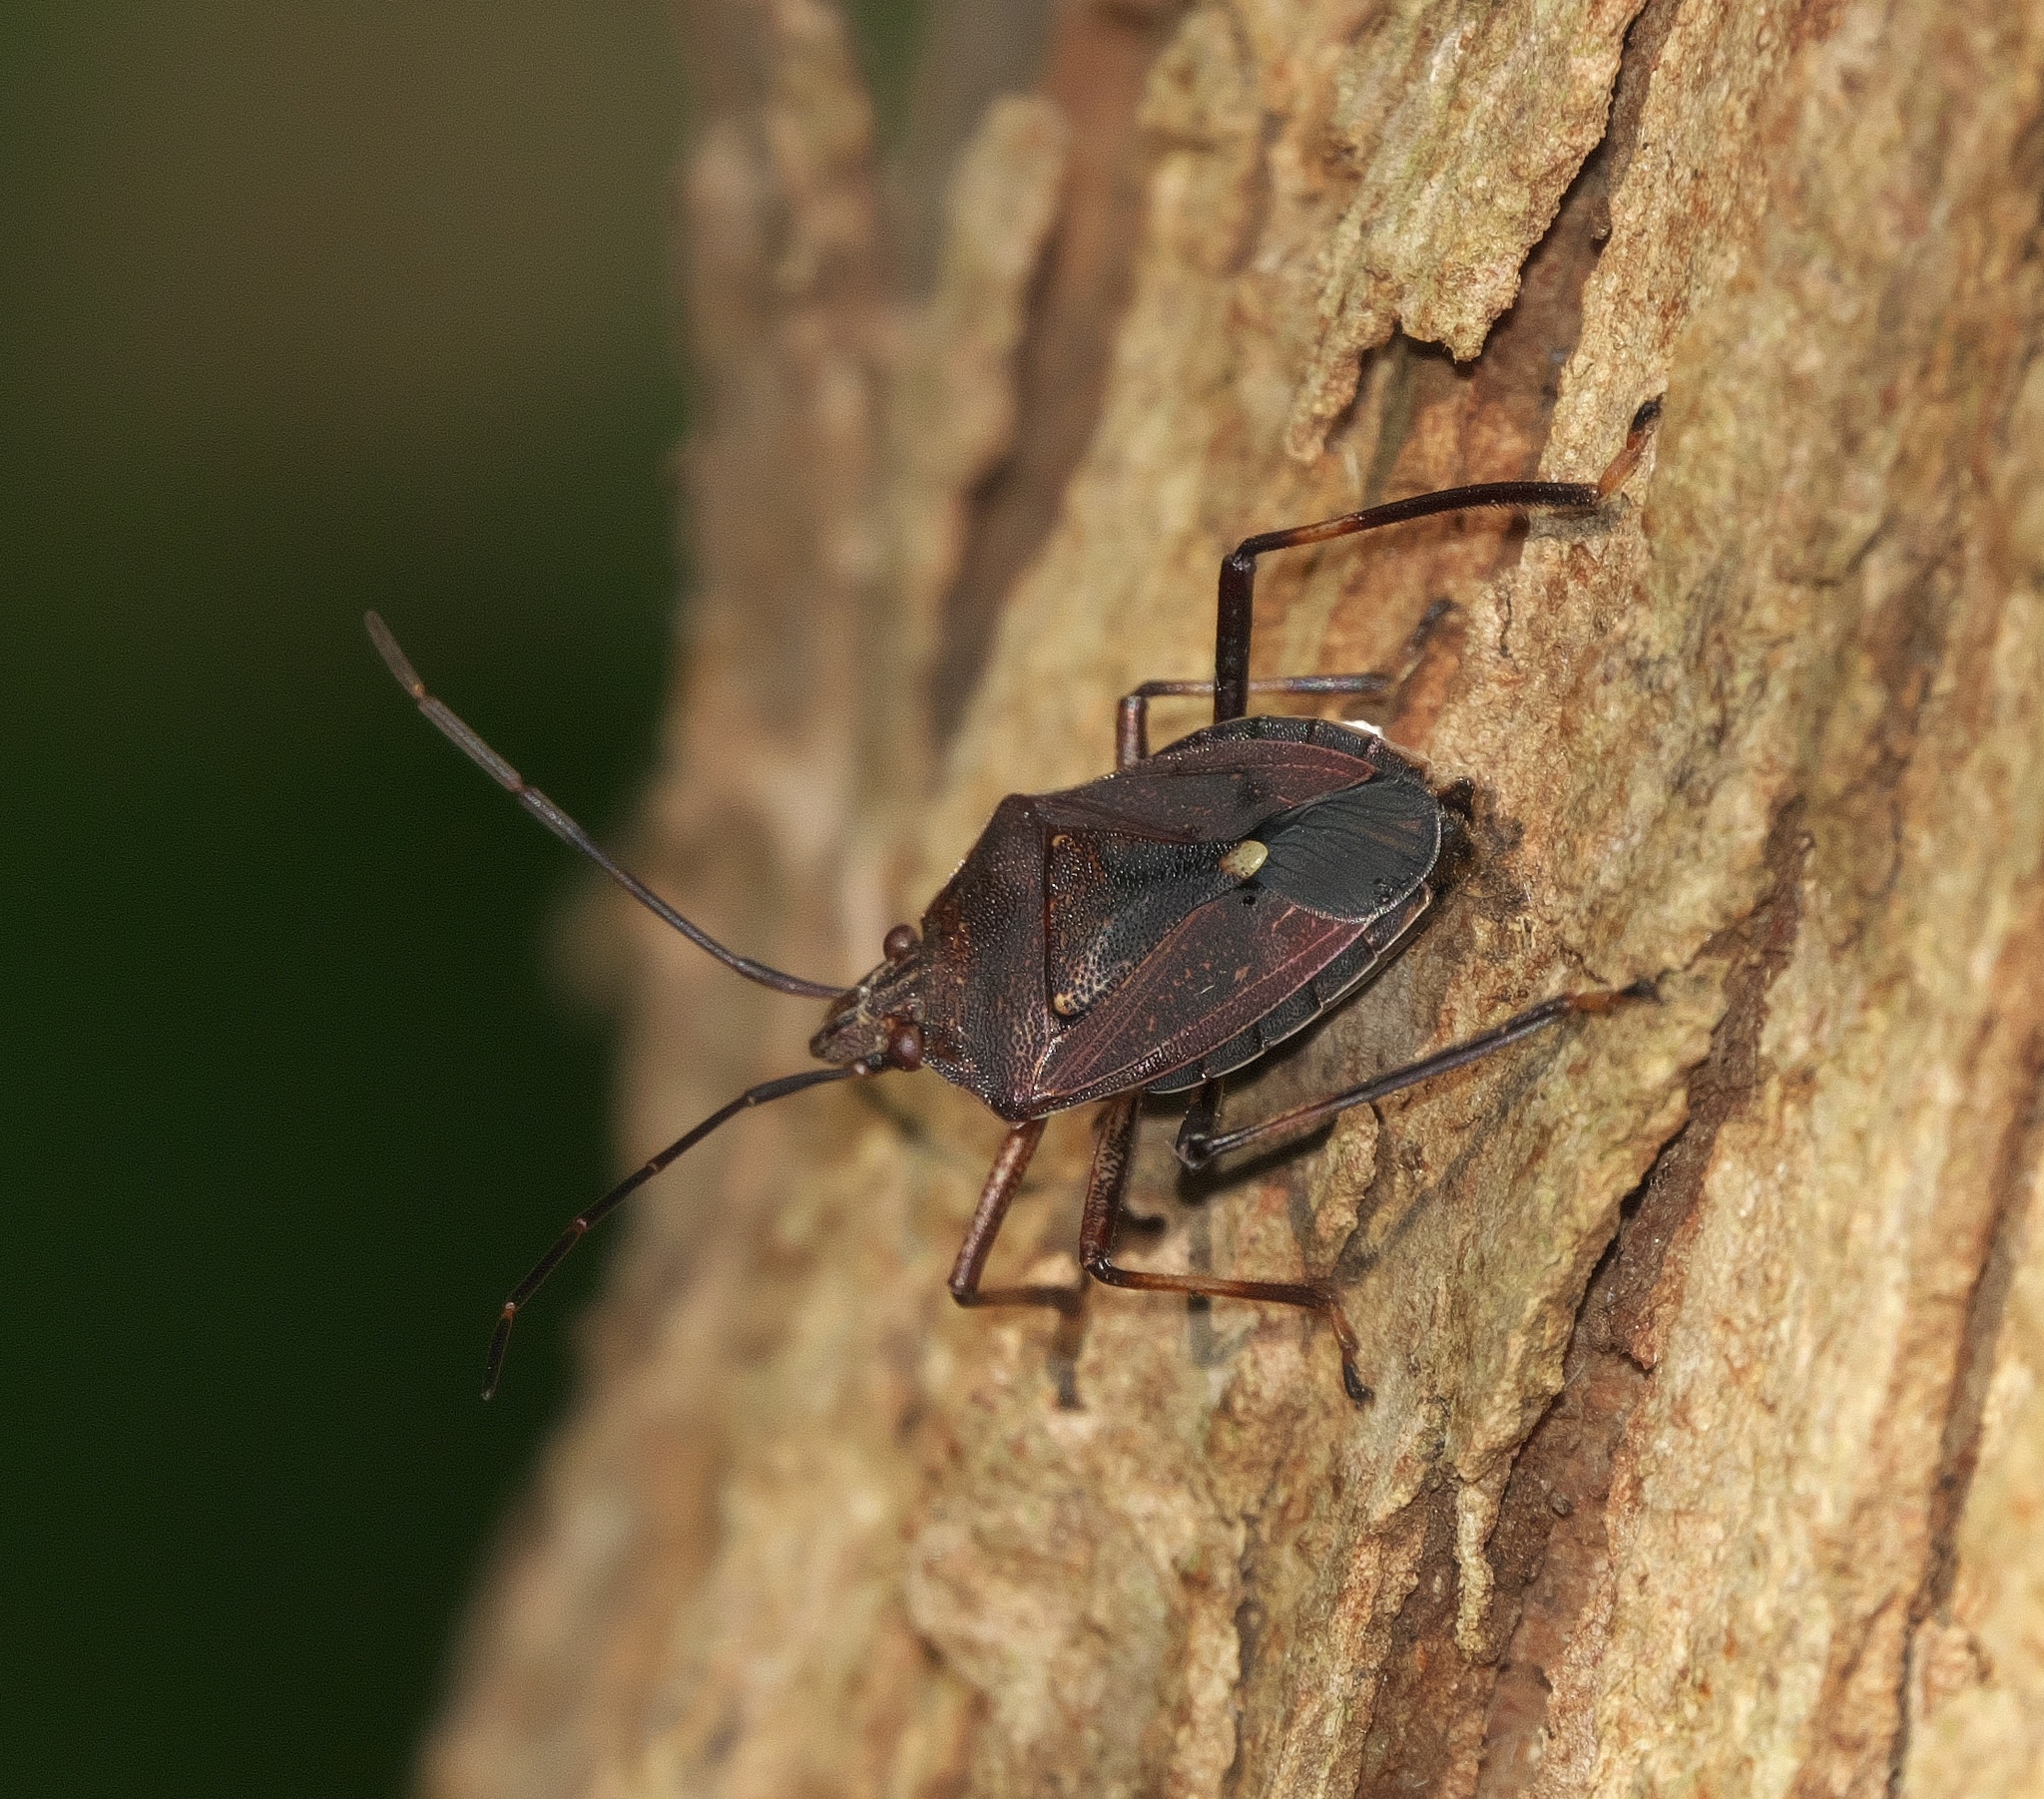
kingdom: Animalia
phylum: Arthropoda
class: Insecta
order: Hemiptera
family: Pentatomidae
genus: Theseus
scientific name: Theseus modestus
